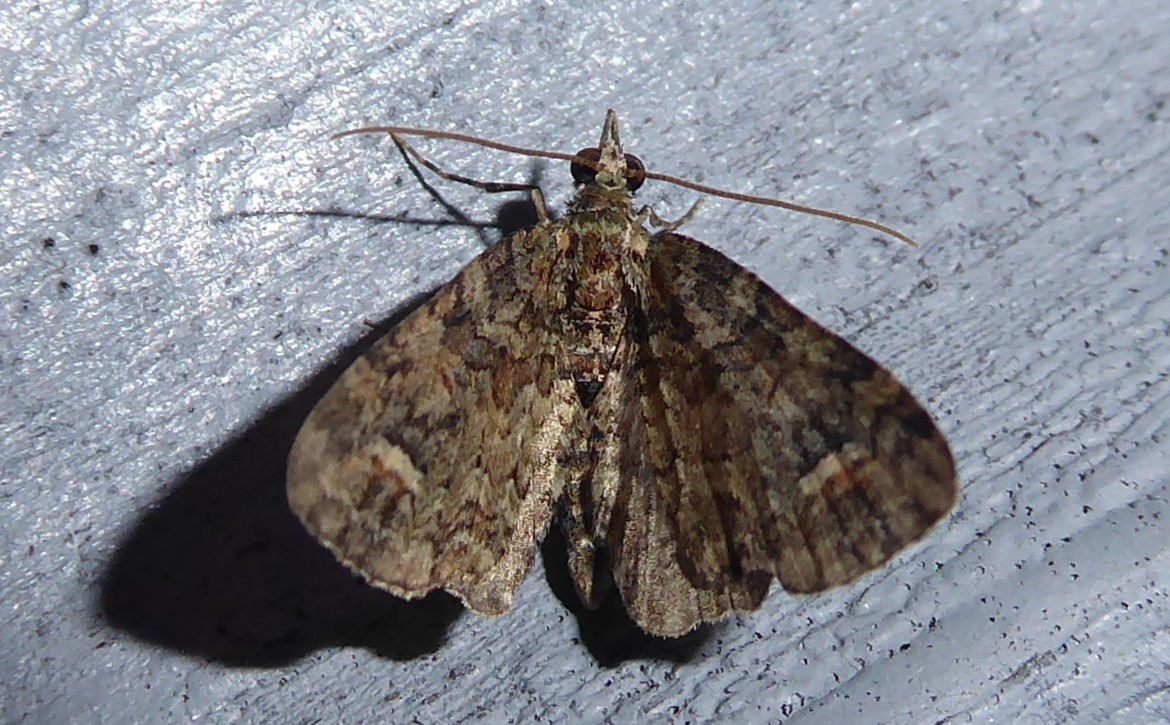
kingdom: Animalia
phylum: Arthropoda
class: Insecta
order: Lepidoptera
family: Geometridae
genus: Idaea
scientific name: Idaea mutanda
